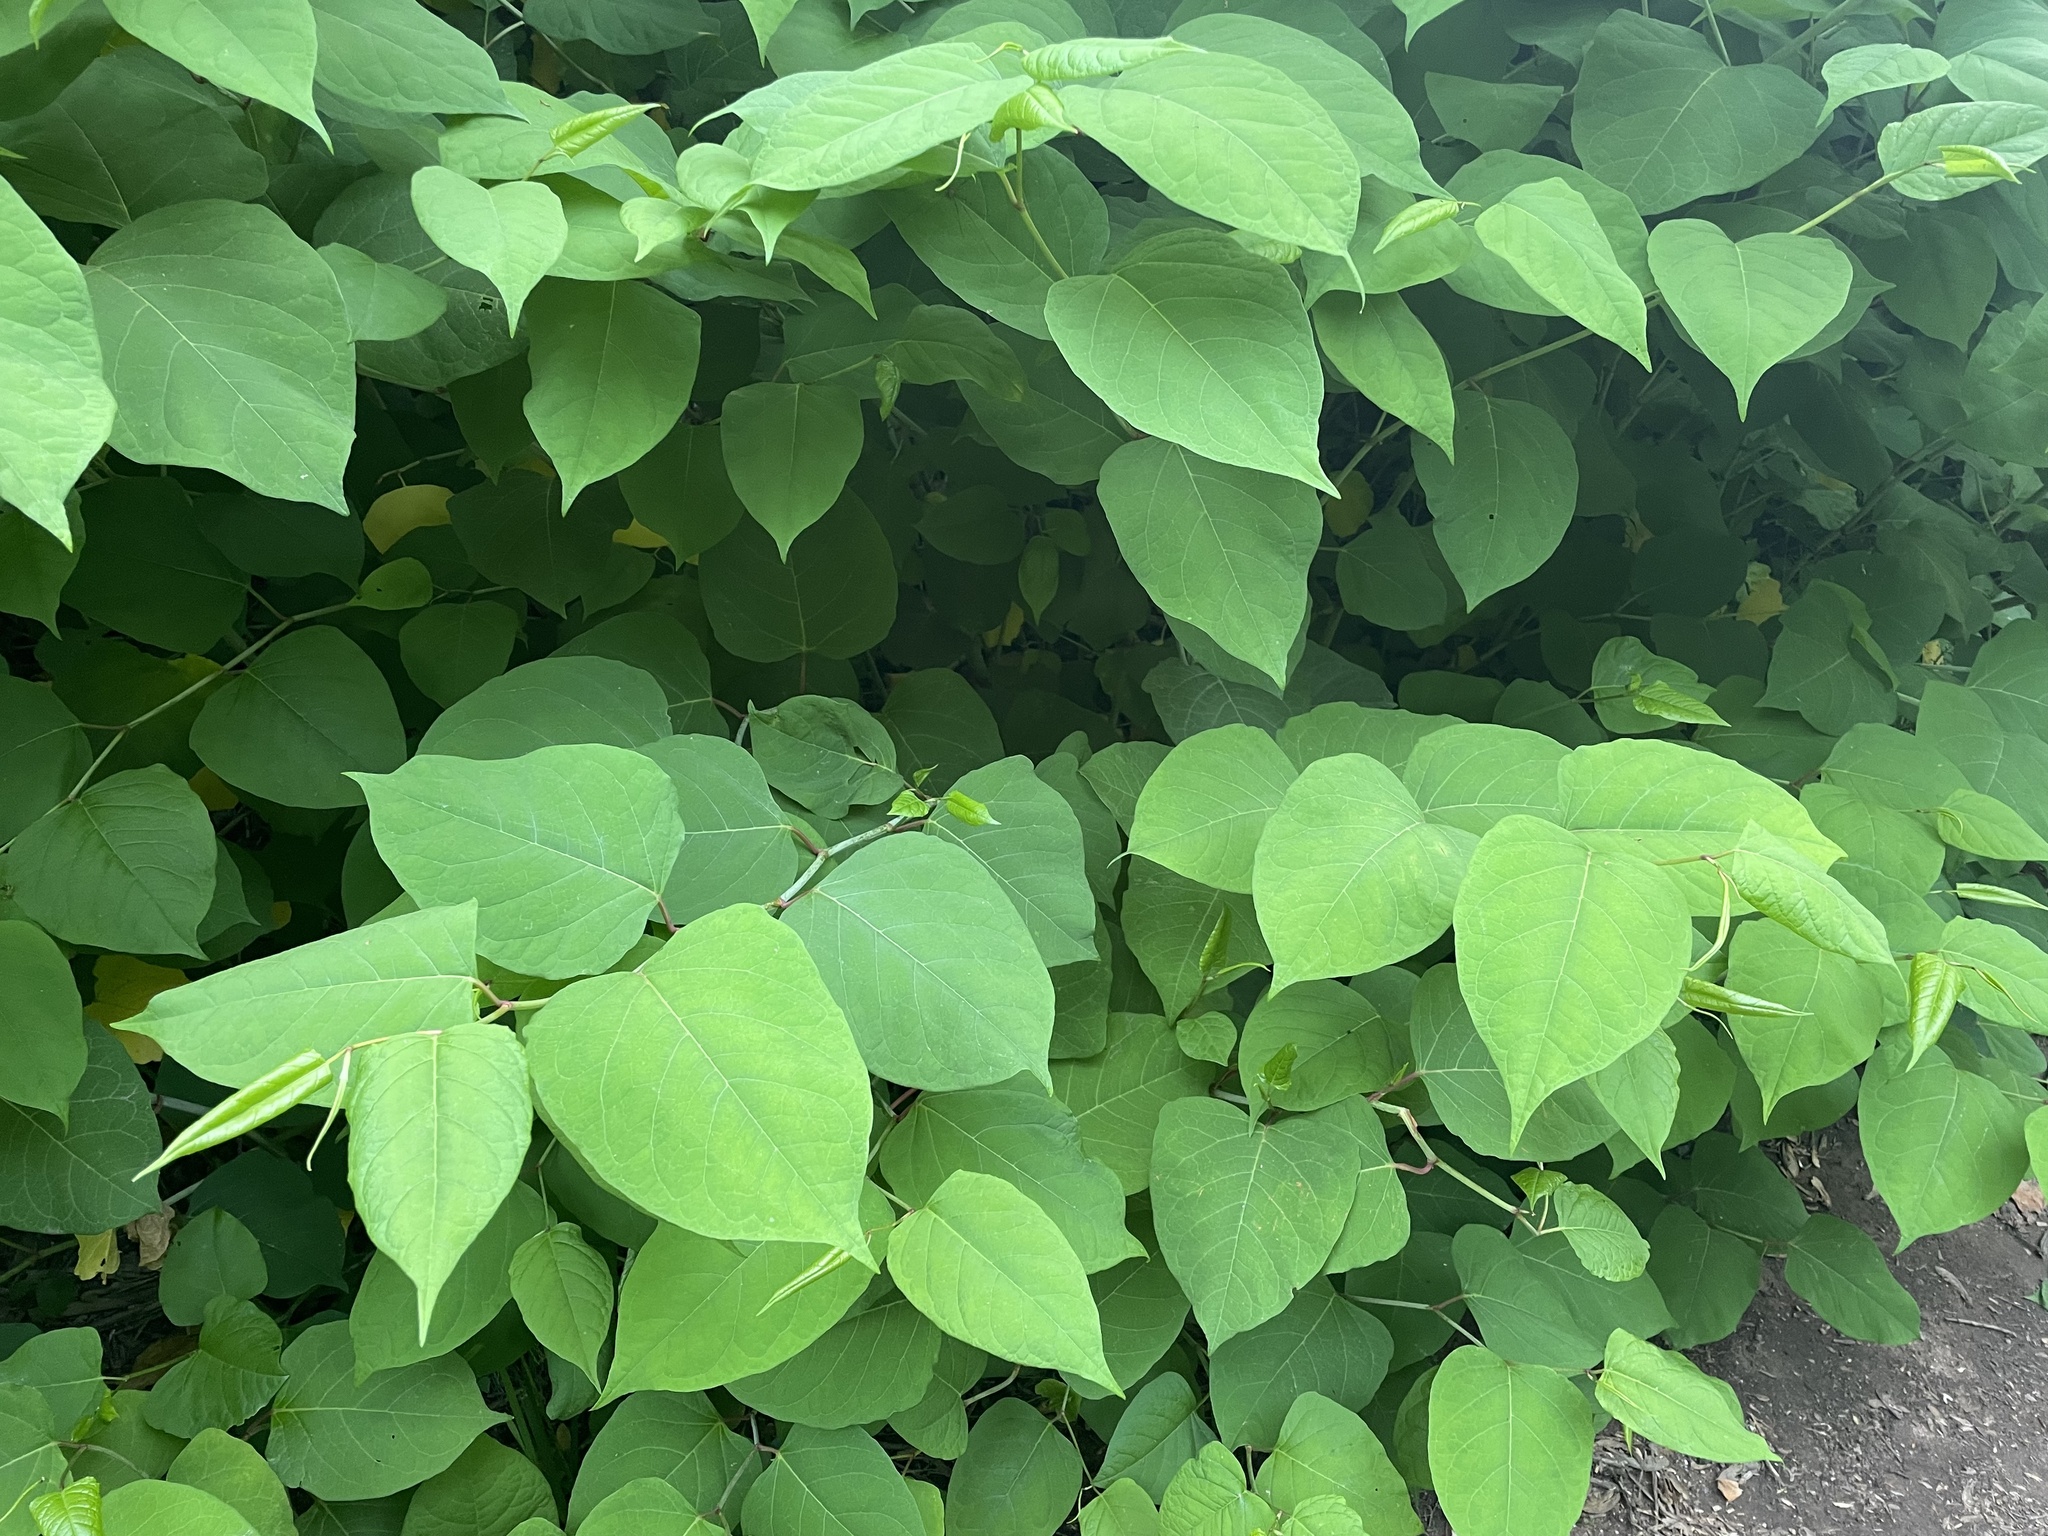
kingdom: Plantae
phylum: Tracheophyta
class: Magnoliopsida
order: Caryophyllales
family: Polygonaceae
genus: Reynoutria
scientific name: Reynoutria japonica
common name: Japanese knotweed
